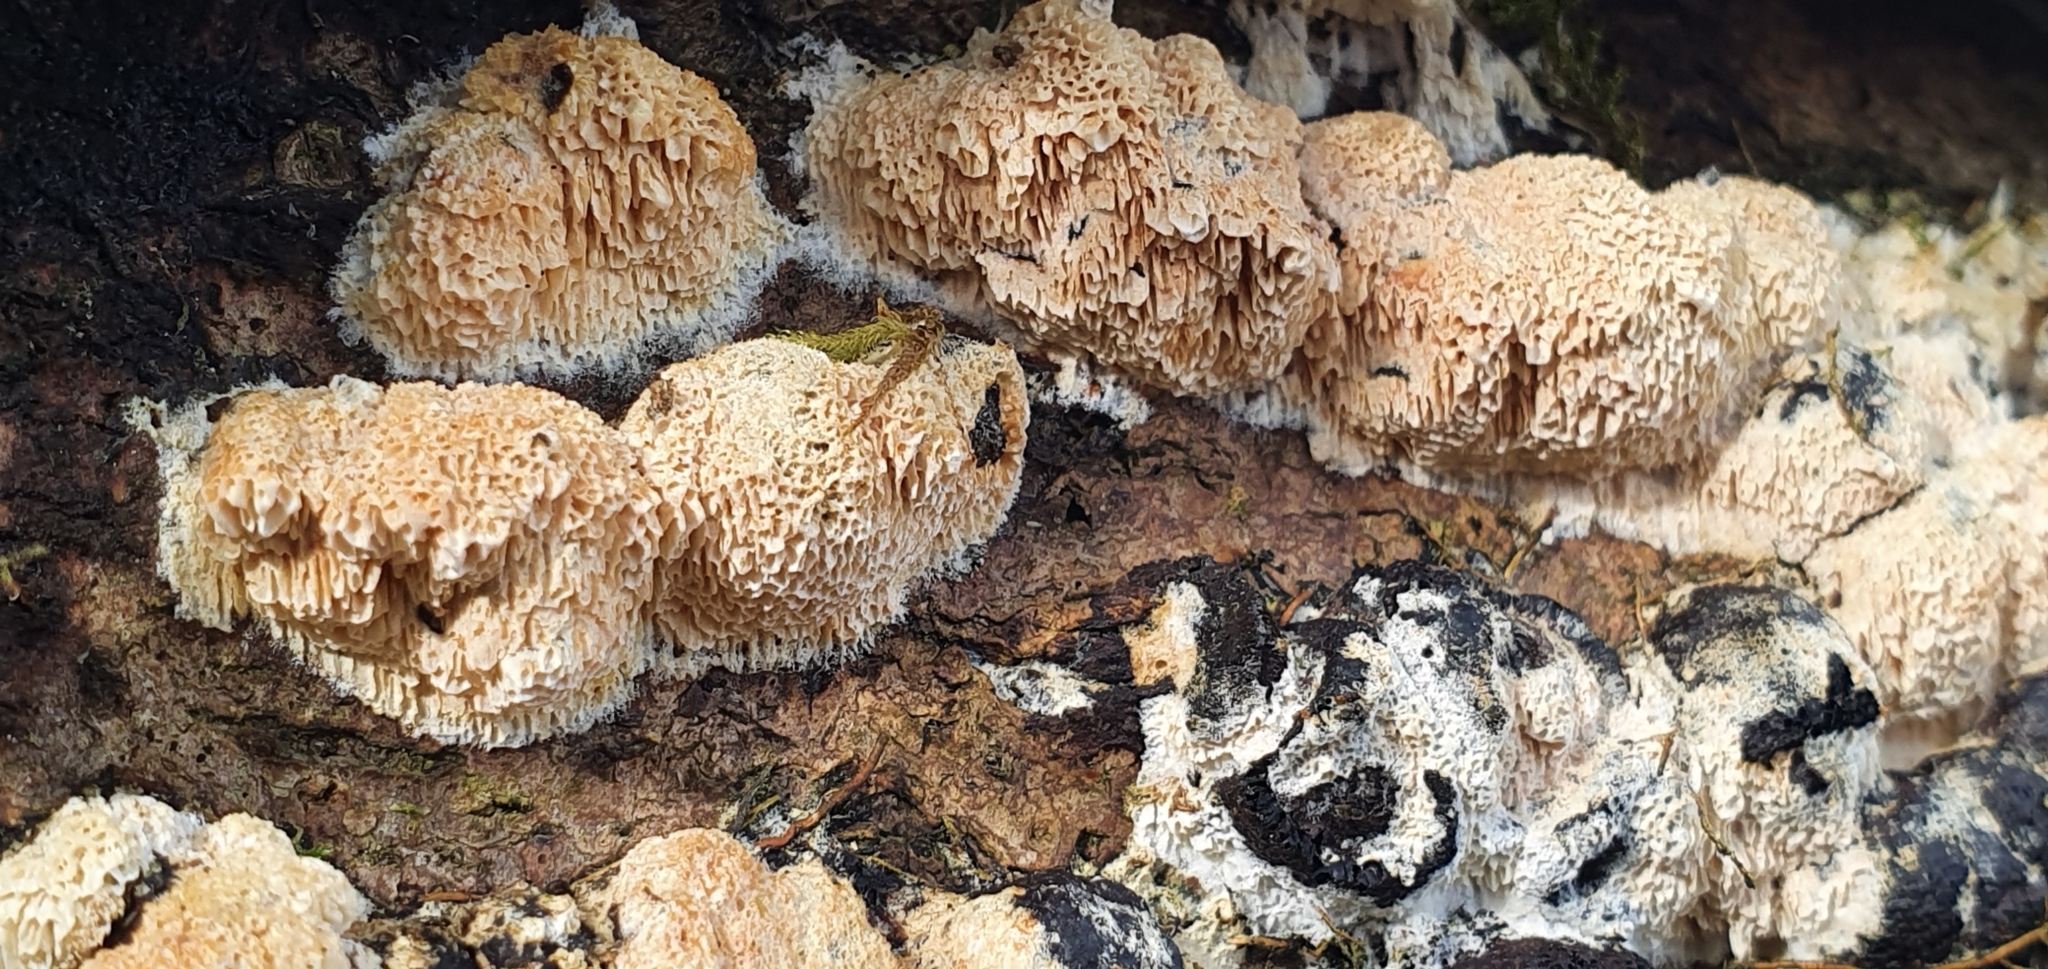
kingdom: Fungi
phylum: Basidiomycota
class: Agaricomycetes
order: Hymenochaetales
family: Schizoporaceae
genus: Xylodon
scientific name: Xylodon radula
